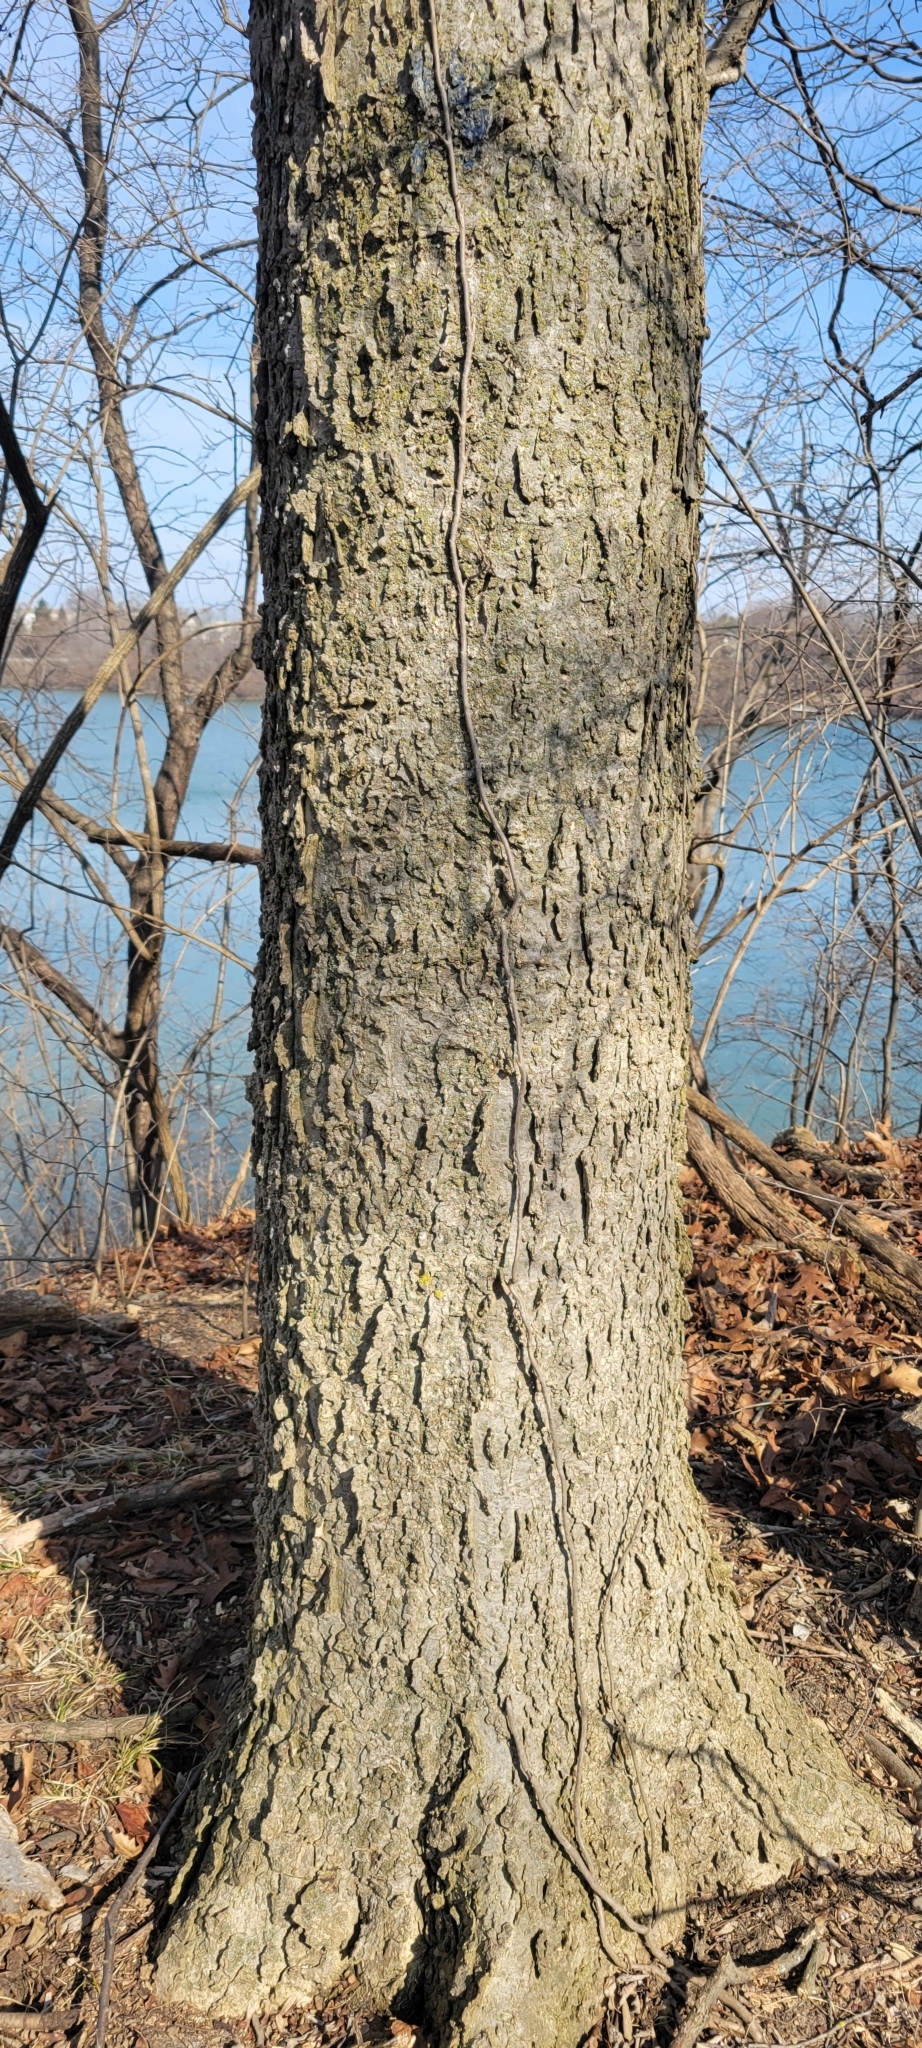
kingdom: Plantae
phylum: Tracheophyta
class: Magnoliopsida
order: Rosales
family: Cannabaceae
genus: Celtis
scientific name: Celtis occidentalis
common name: Common hackberry
